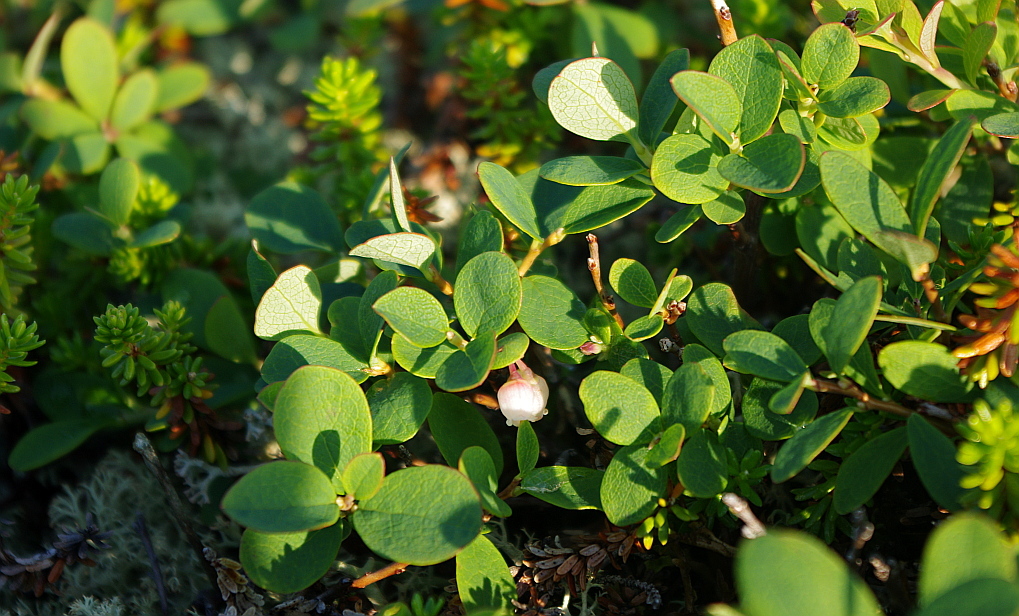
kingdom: Plantae
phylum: Tracheophyta
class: Magnoliopsida
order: Ericales
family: Ericaceae
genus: Vaccinium
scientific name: Vaccinium uliginosum
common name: Bog bilberry
